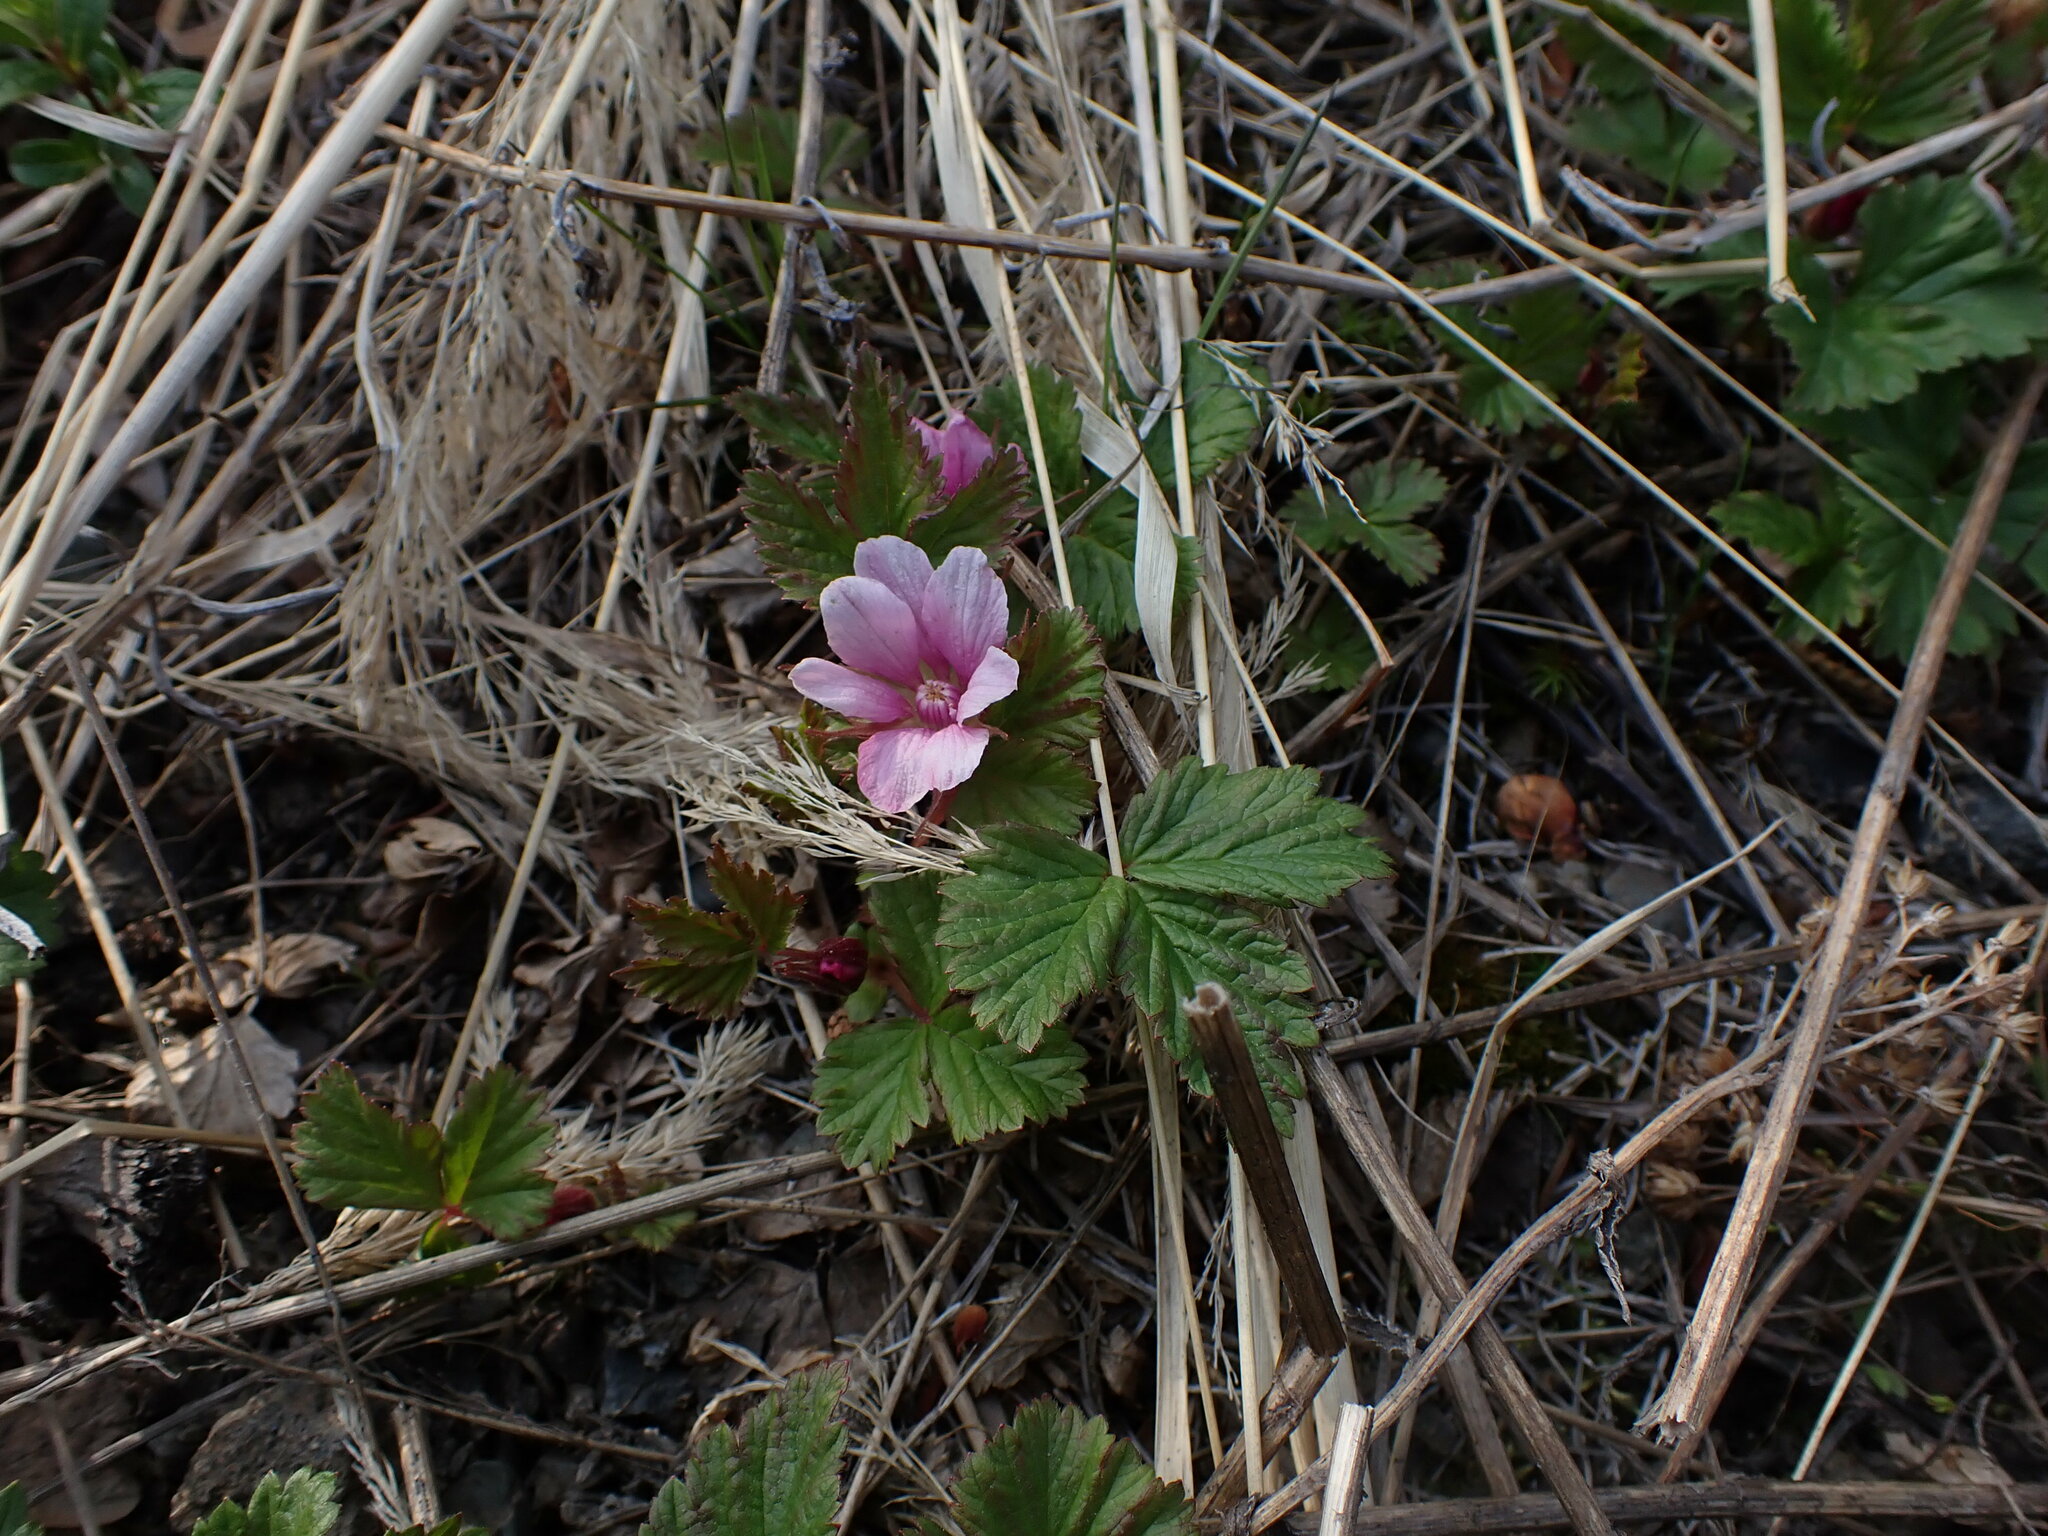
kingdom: Plantae
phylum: Tracheophyta
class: Magnoliopsida
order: Rosales
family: Rosaceae
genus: Rubus
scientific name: Rubus arcticus
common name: Arctic bramble
